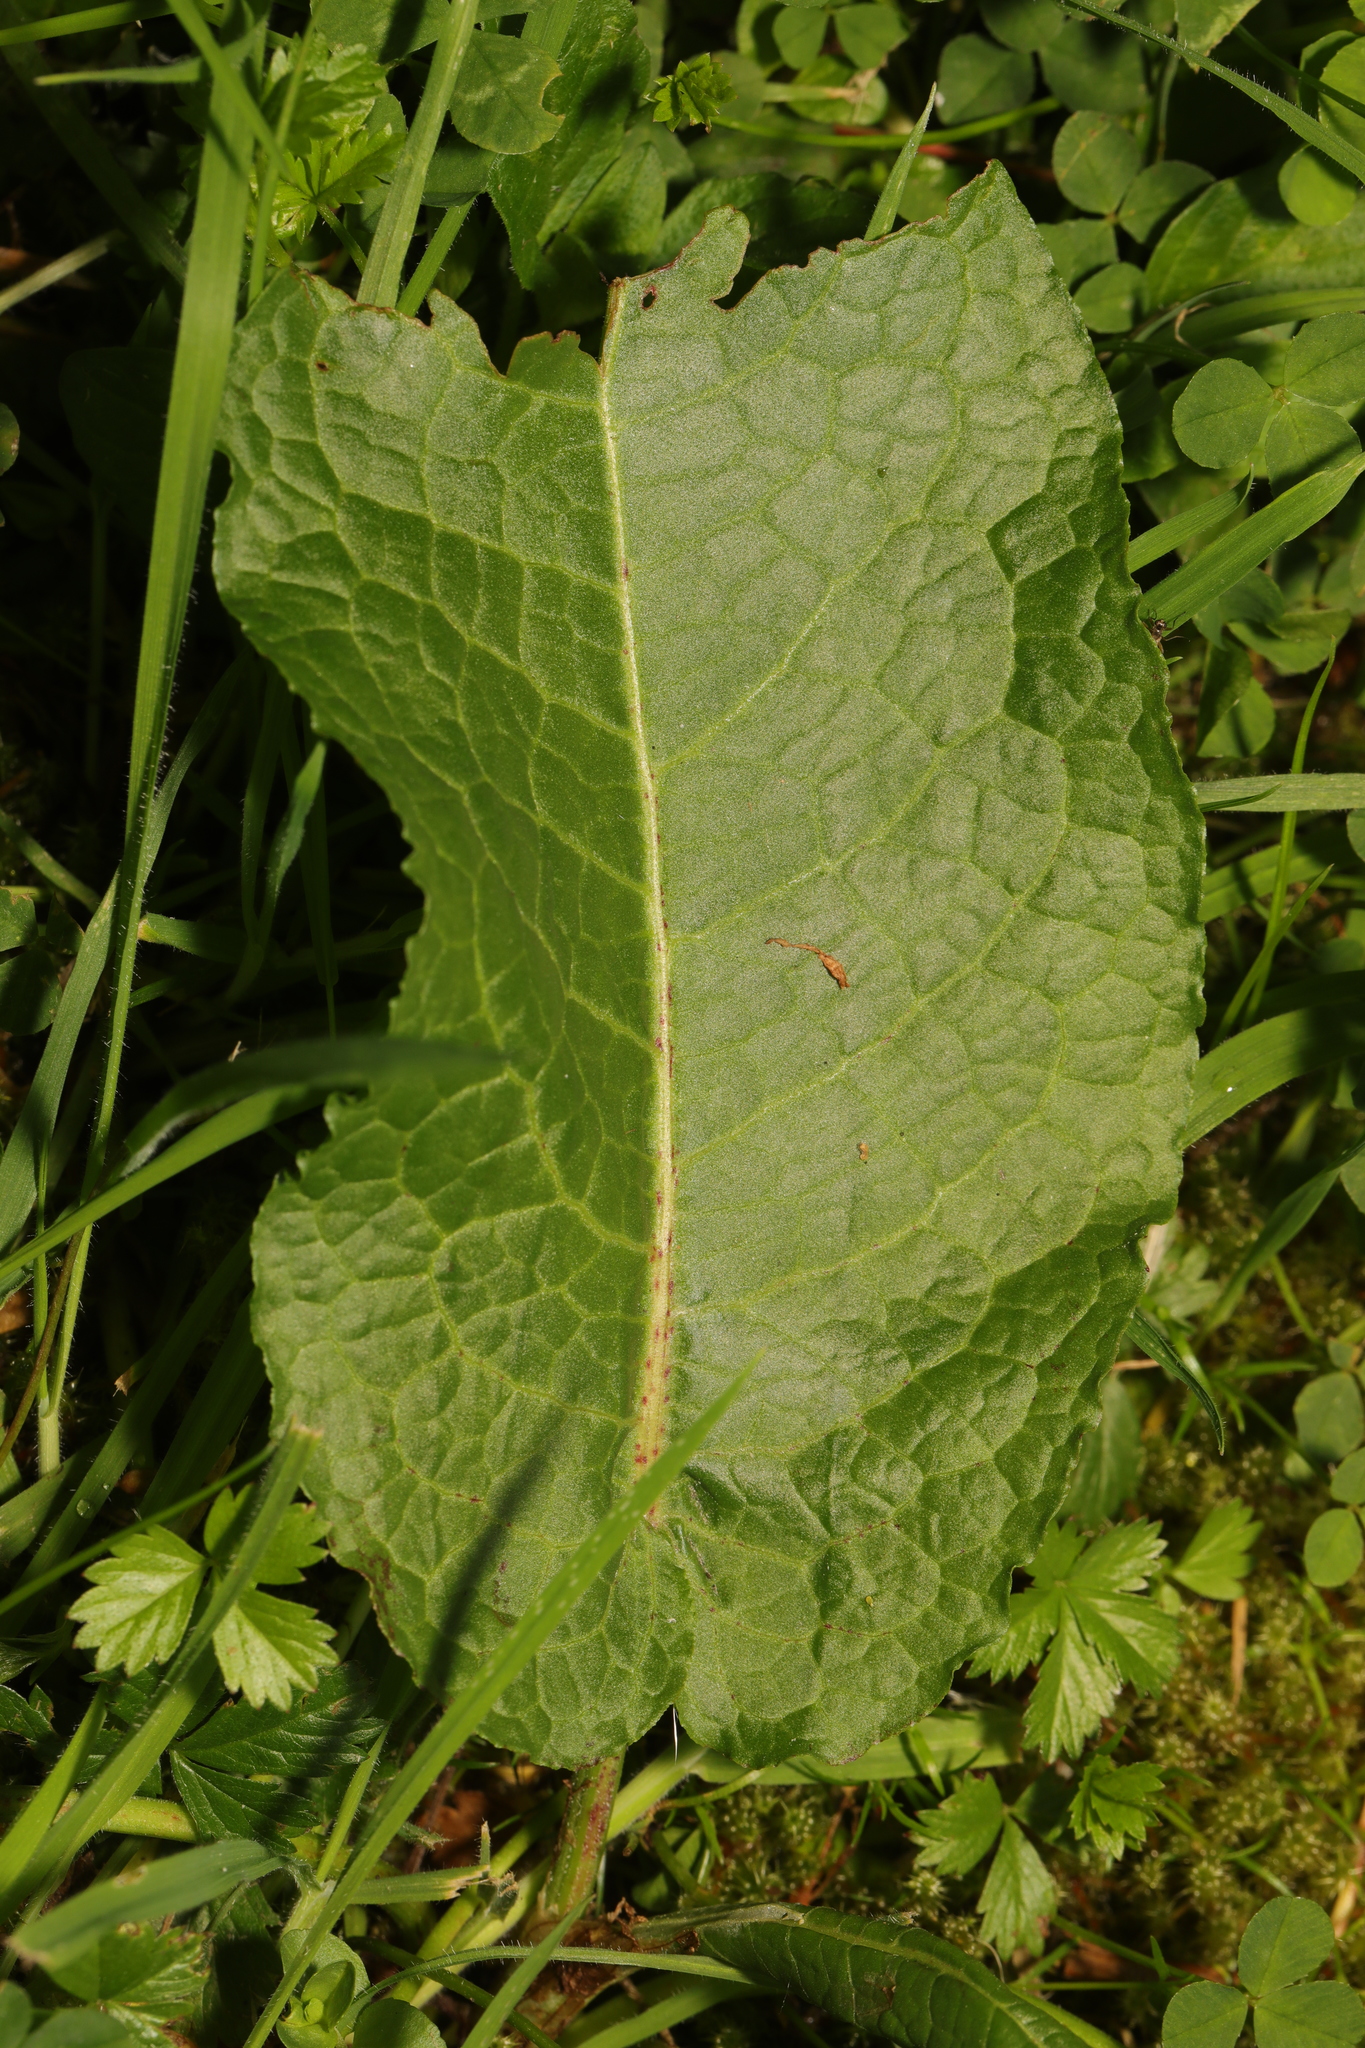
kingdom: Plantae
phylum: Tracheophyta
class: Magnoliopsida
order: Caryophyllales
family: Polygonaceae
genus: Rumex
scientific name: Rumex obtusifolius
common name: Bitter dock
